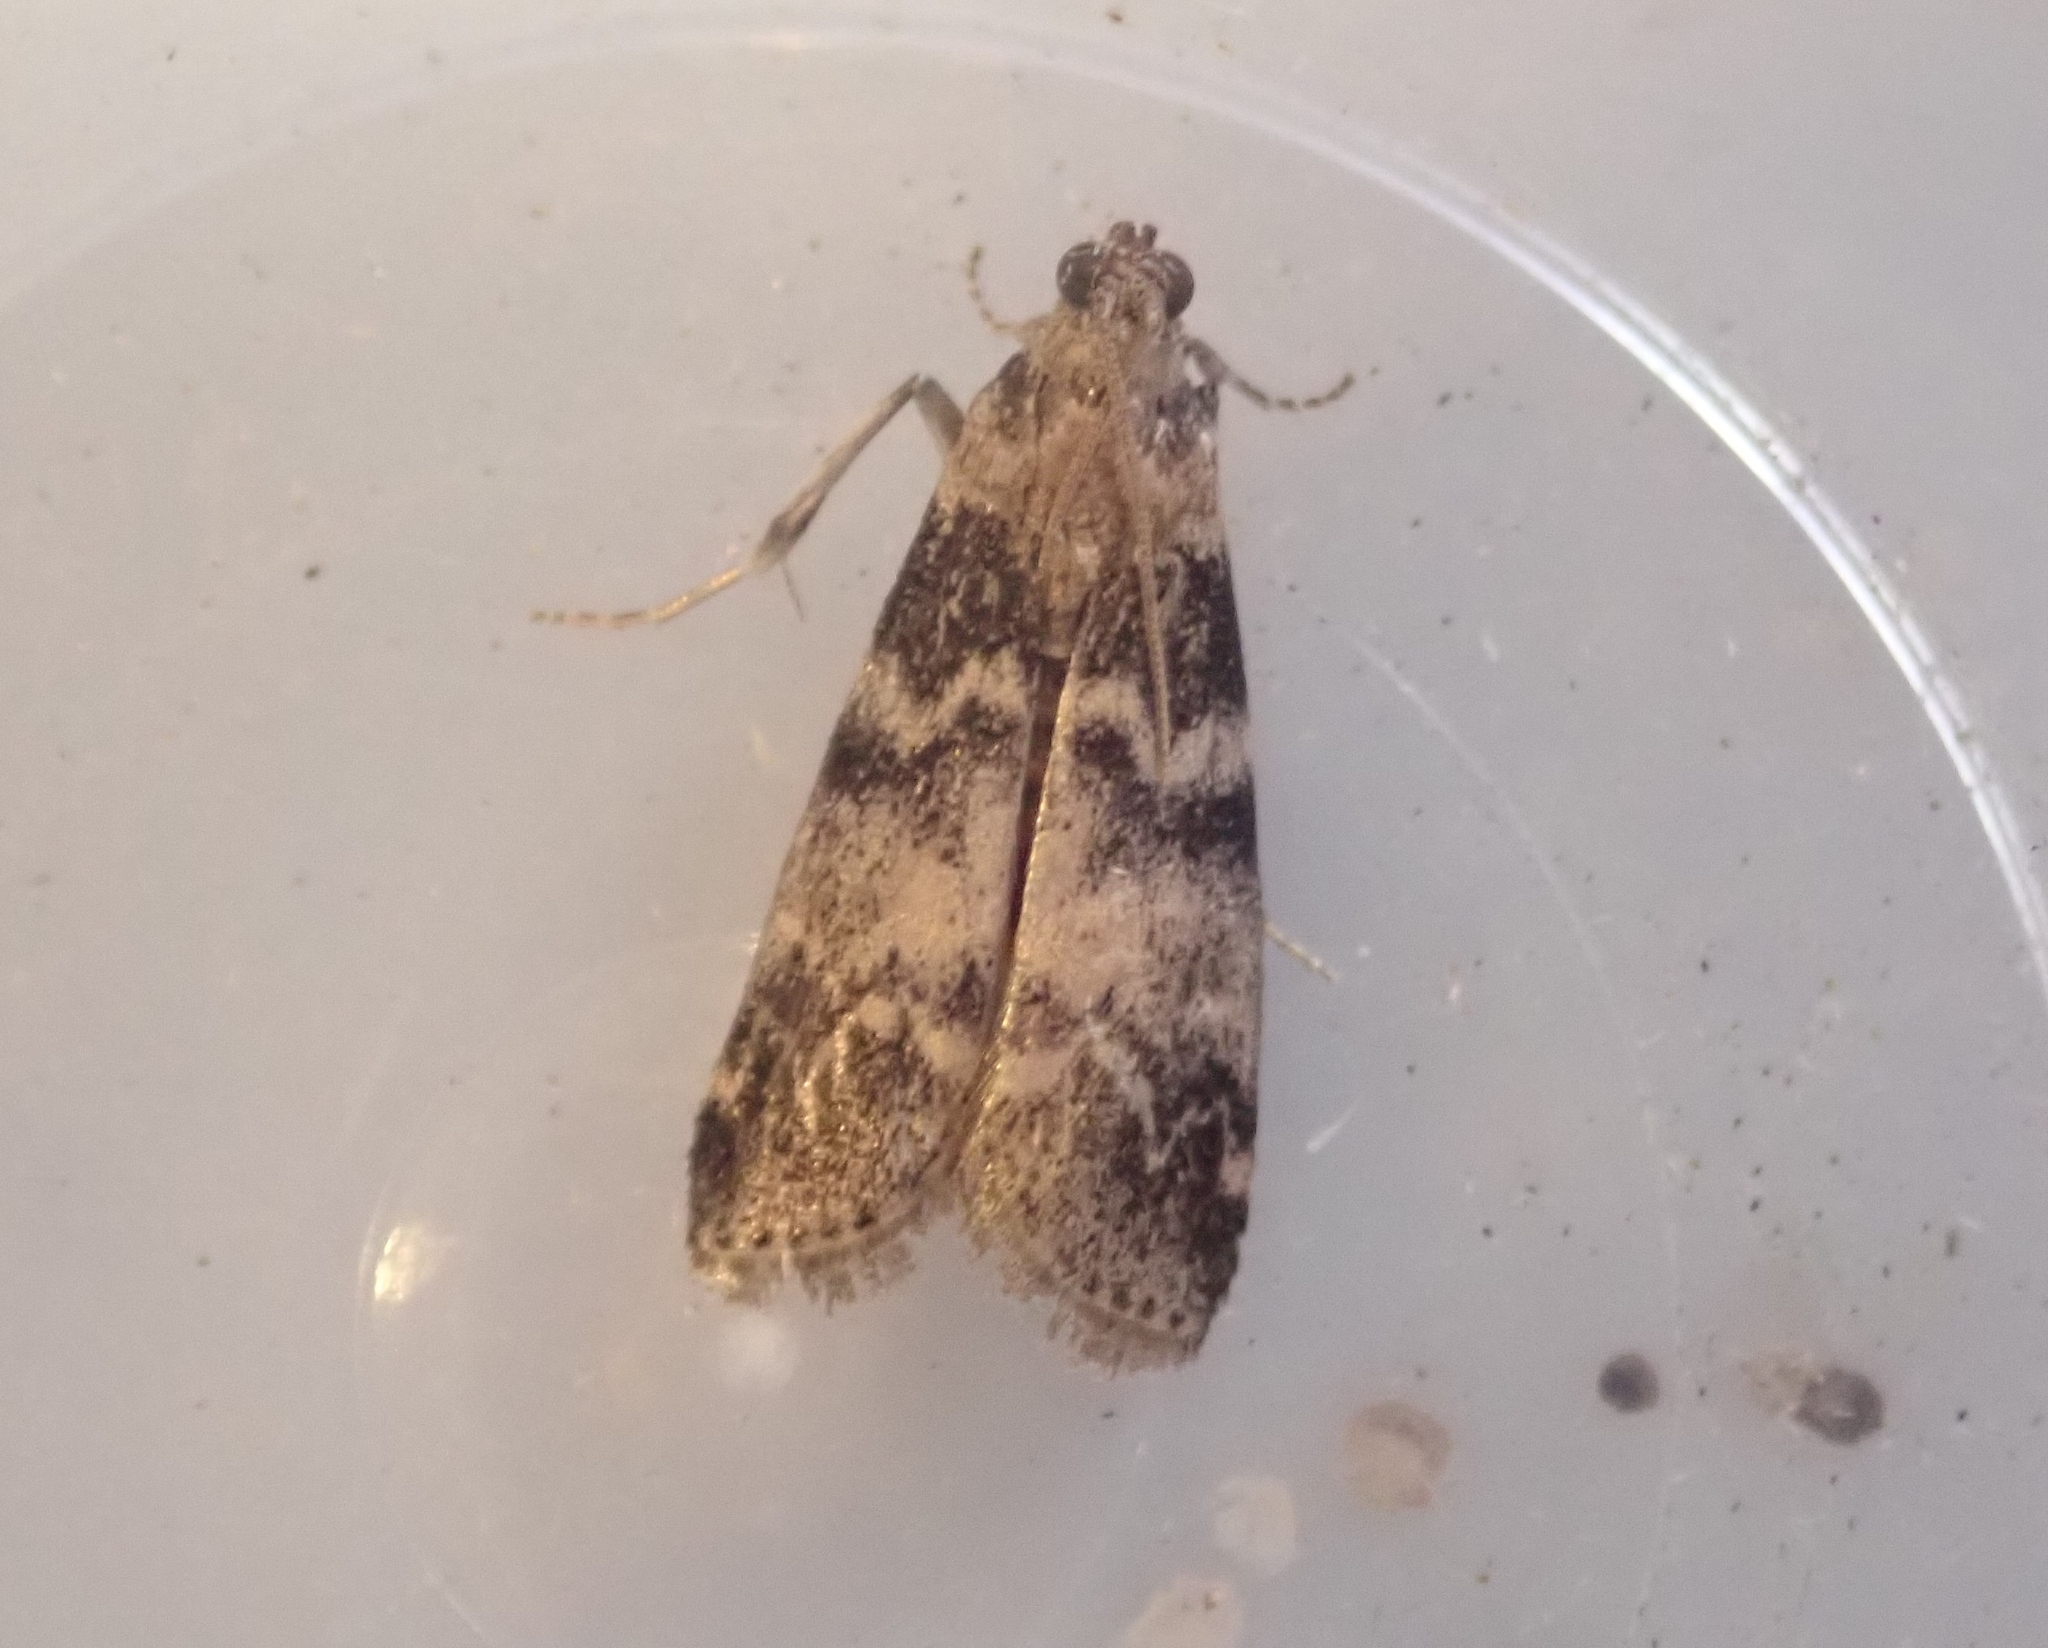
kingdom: Animalia
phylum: Arthropoda
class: Insecta
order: Lepidoptera
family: Pyralidae
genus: Euzophera
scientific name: Euzophera pinguis
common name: Ash-bark knot-horn
